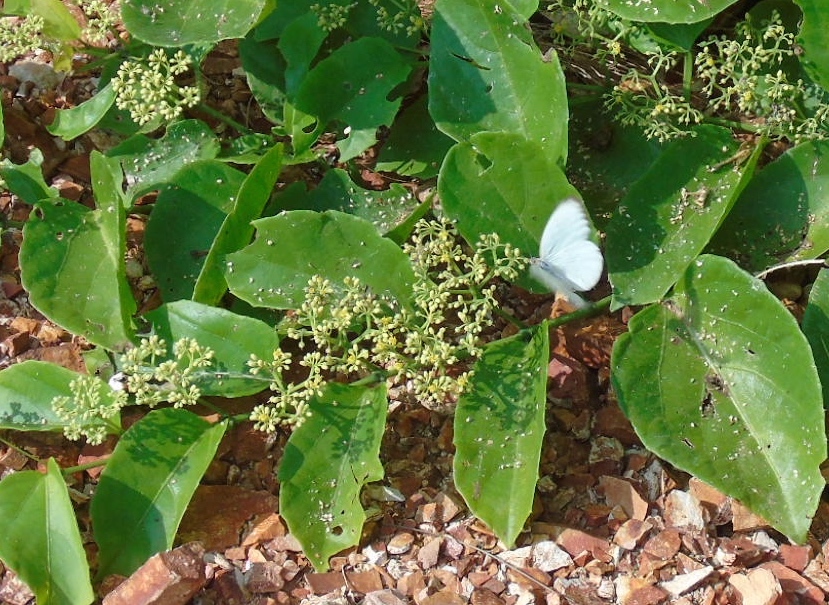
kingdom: Plantae
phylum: Tracheophyta
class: Magnoliopsida
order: Vitales
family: Vitaceae
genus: Cissus
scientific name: Cissus verticillata
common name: Princess vine
